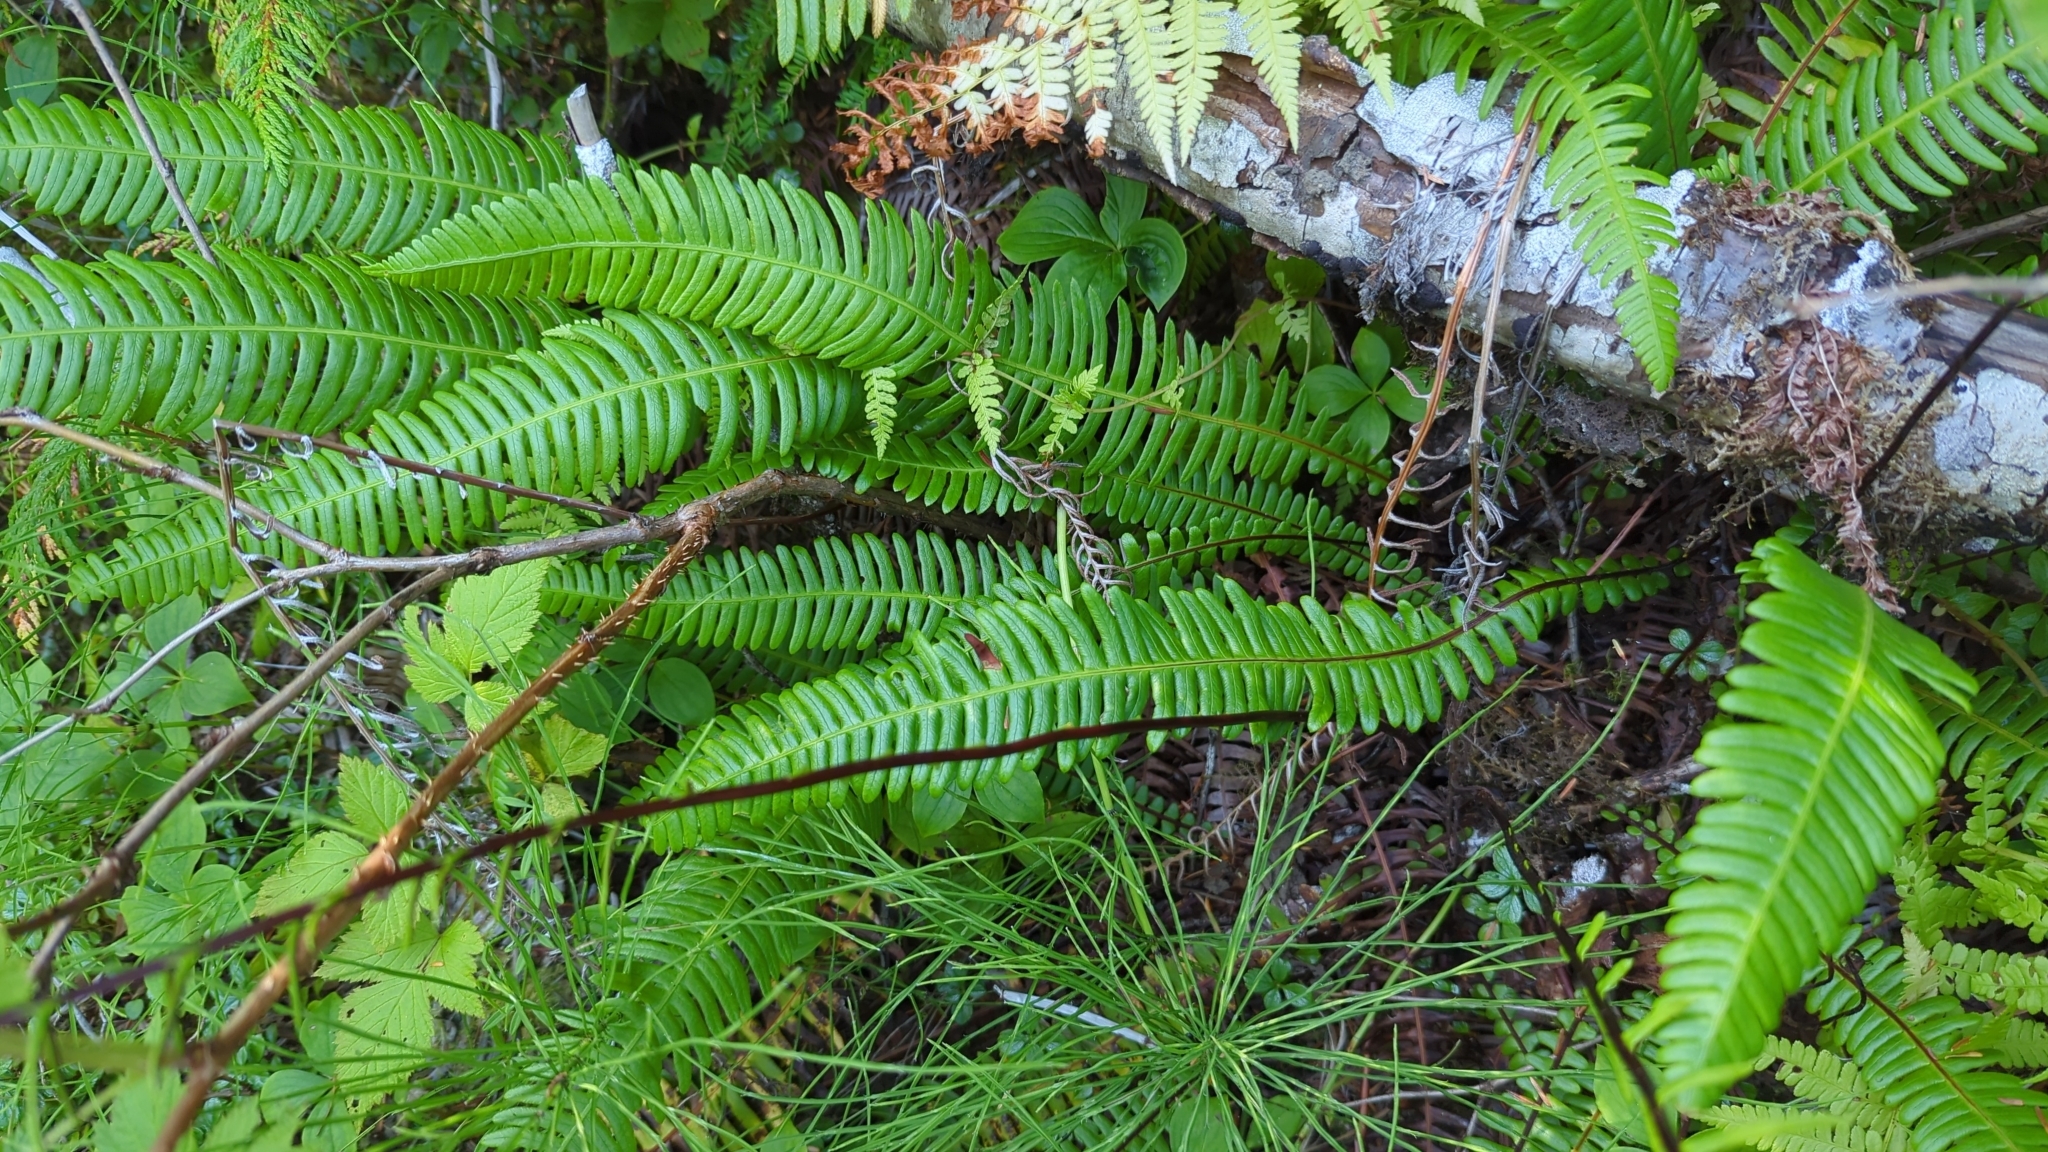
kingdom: Plantae
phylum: Tracheophyta
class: Polypodiopsida
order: Polypodiales
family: Blechnaceae
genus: Struthiopteris
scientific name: Struthiopteris spicant
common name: Deer fern
